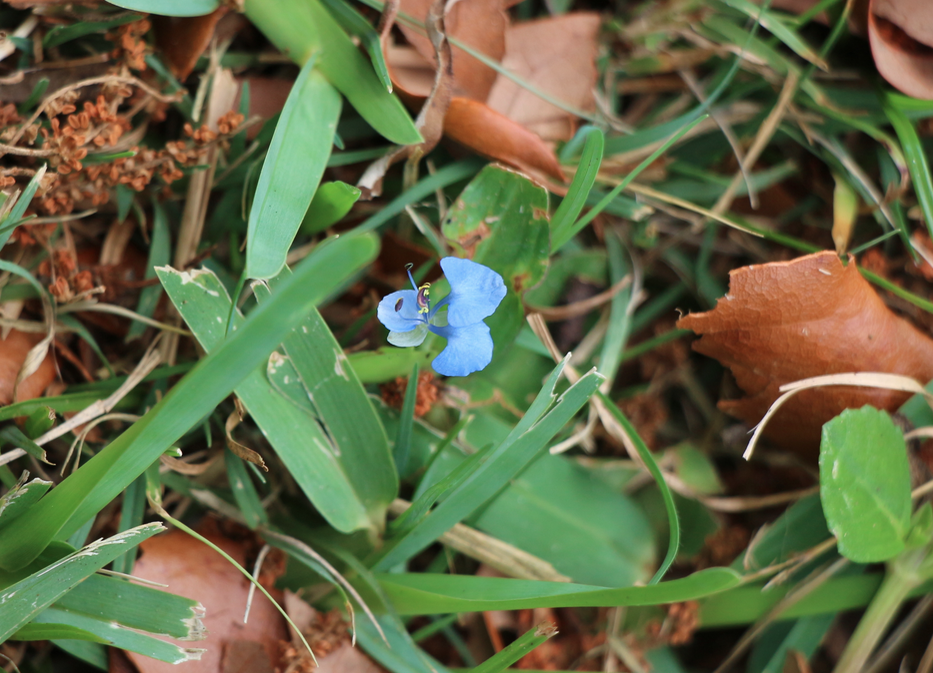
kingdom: Plantae
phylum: Tracheophyta
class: Liliopsida
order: Commelinales
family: Commelinaceae
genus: Commelina
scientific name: Commelina diffusa
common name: Climbing dayflower
